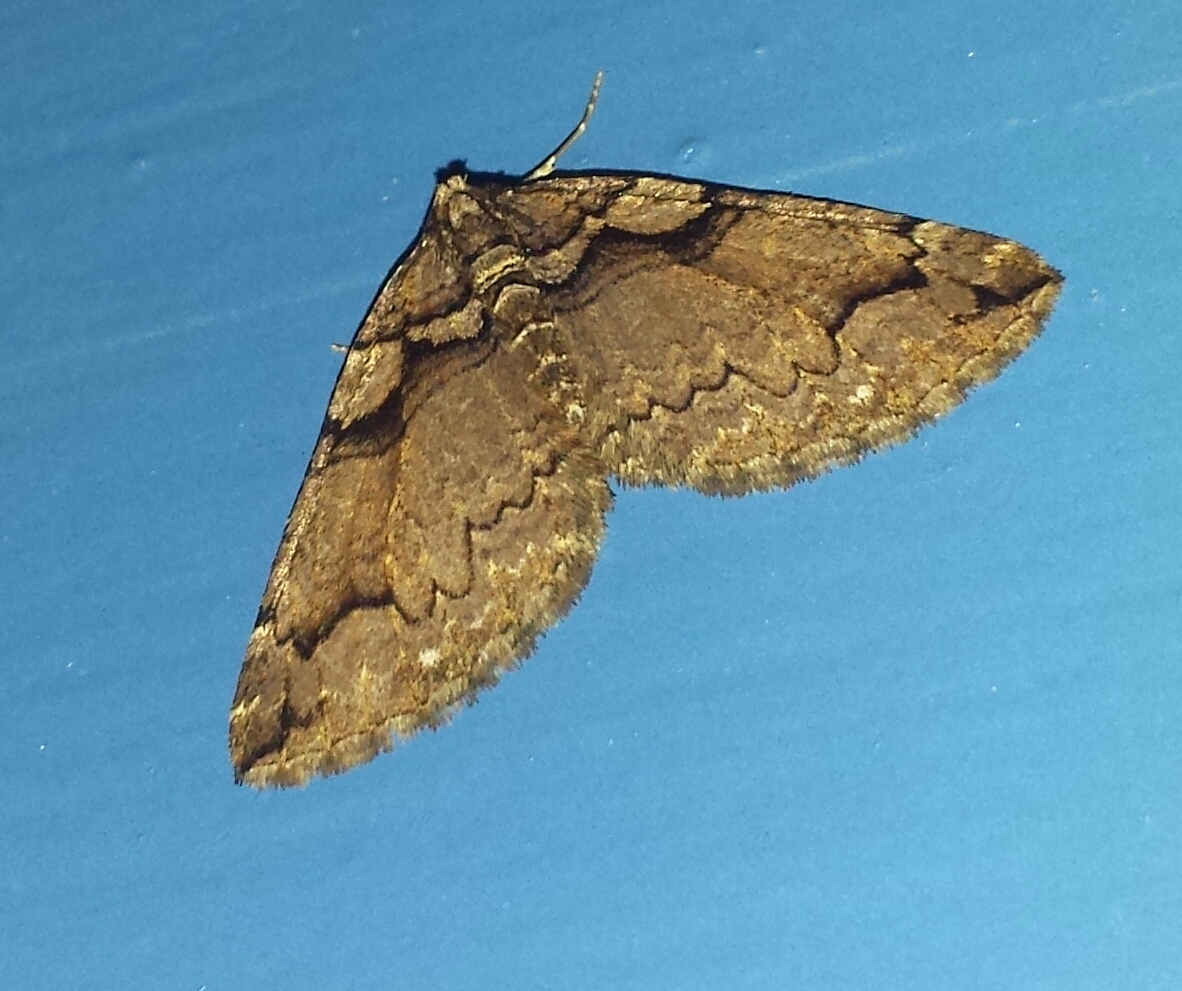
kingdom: Animalia
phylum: Arthropoda
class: Insecta
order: Lepidoptera
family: Geometridae
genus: Anticlea
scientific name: Anticlea vasiliata
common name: Variable carpet
